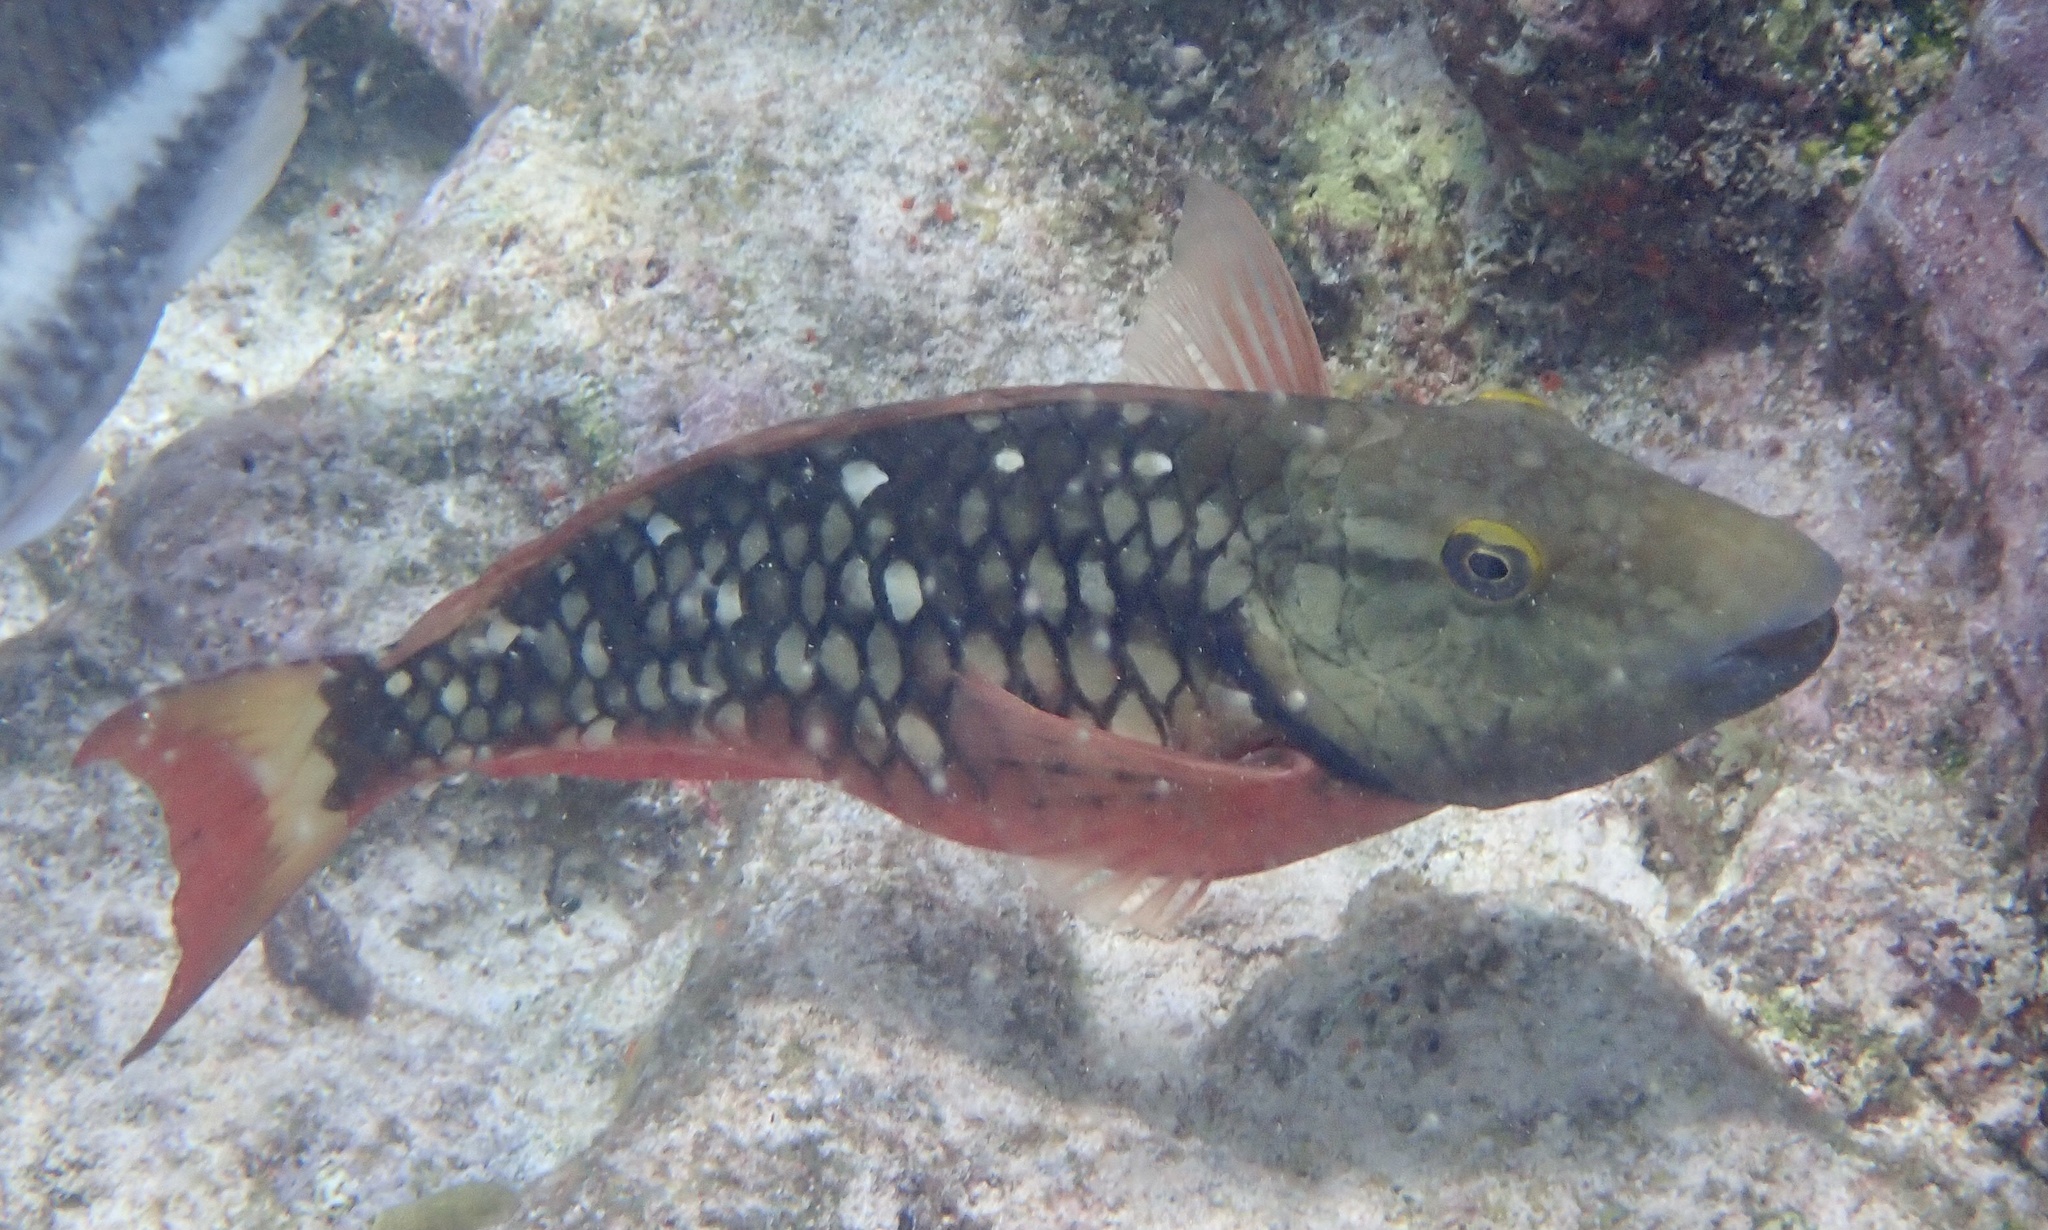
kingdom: Animalia
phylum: Chordata
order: Perciformes
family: Scaridae
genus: Sparisoma
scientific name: Sparisoma viride
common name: Stoplight parrotfish
